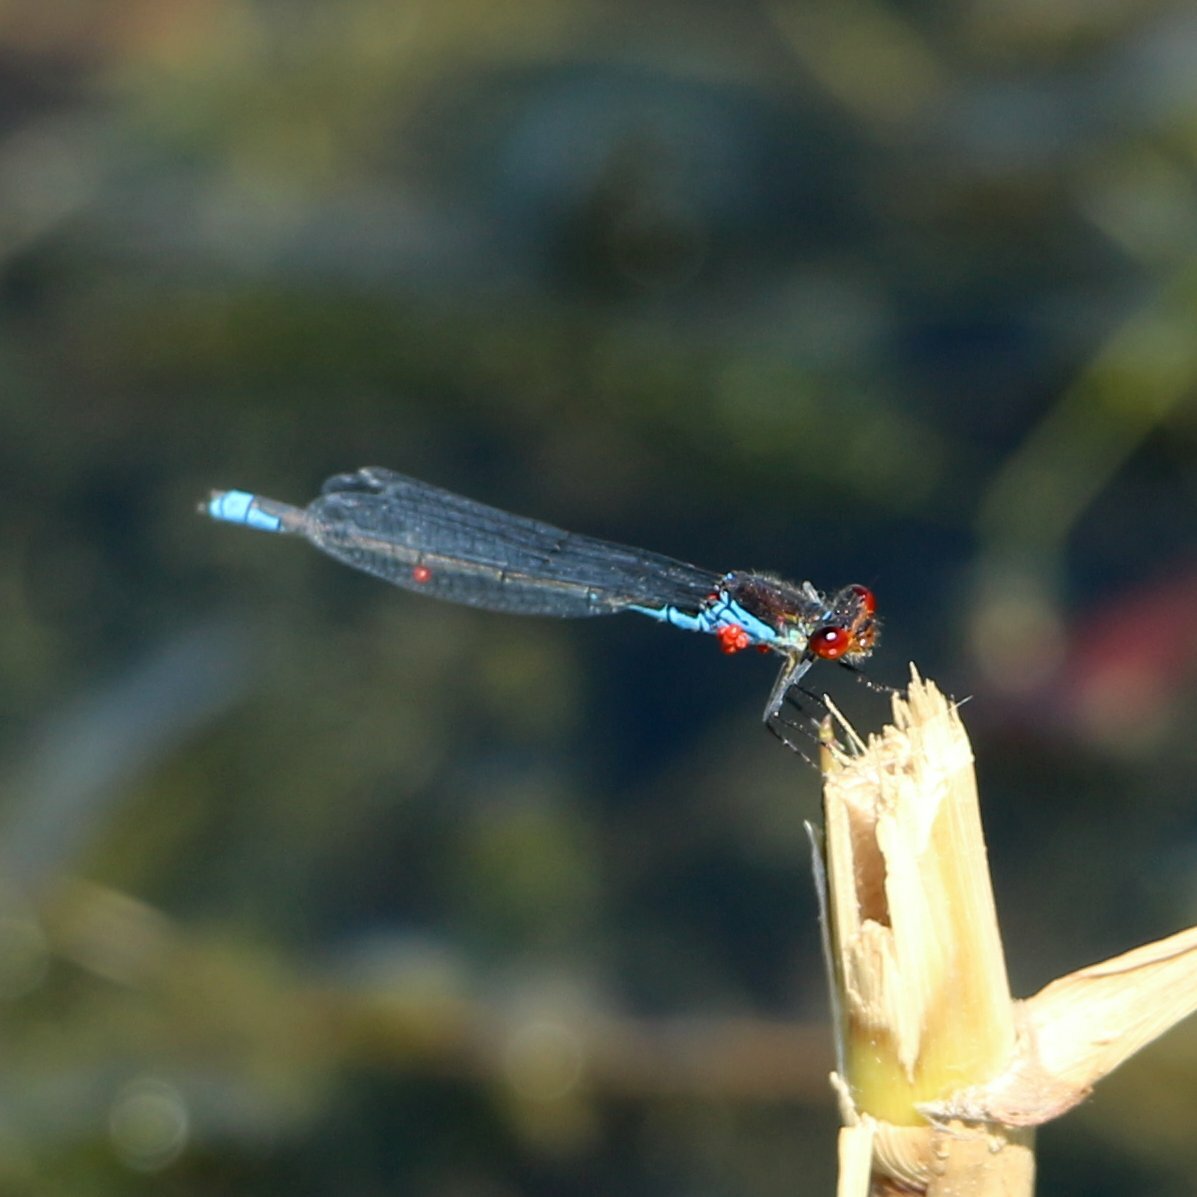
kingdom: Animalia
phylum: Arthropoda
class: Insecta
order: Odonata
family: Coenagrionidae
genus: Erythromma
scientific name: Erythromma viridulum
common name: Small red-eyed damselfly
